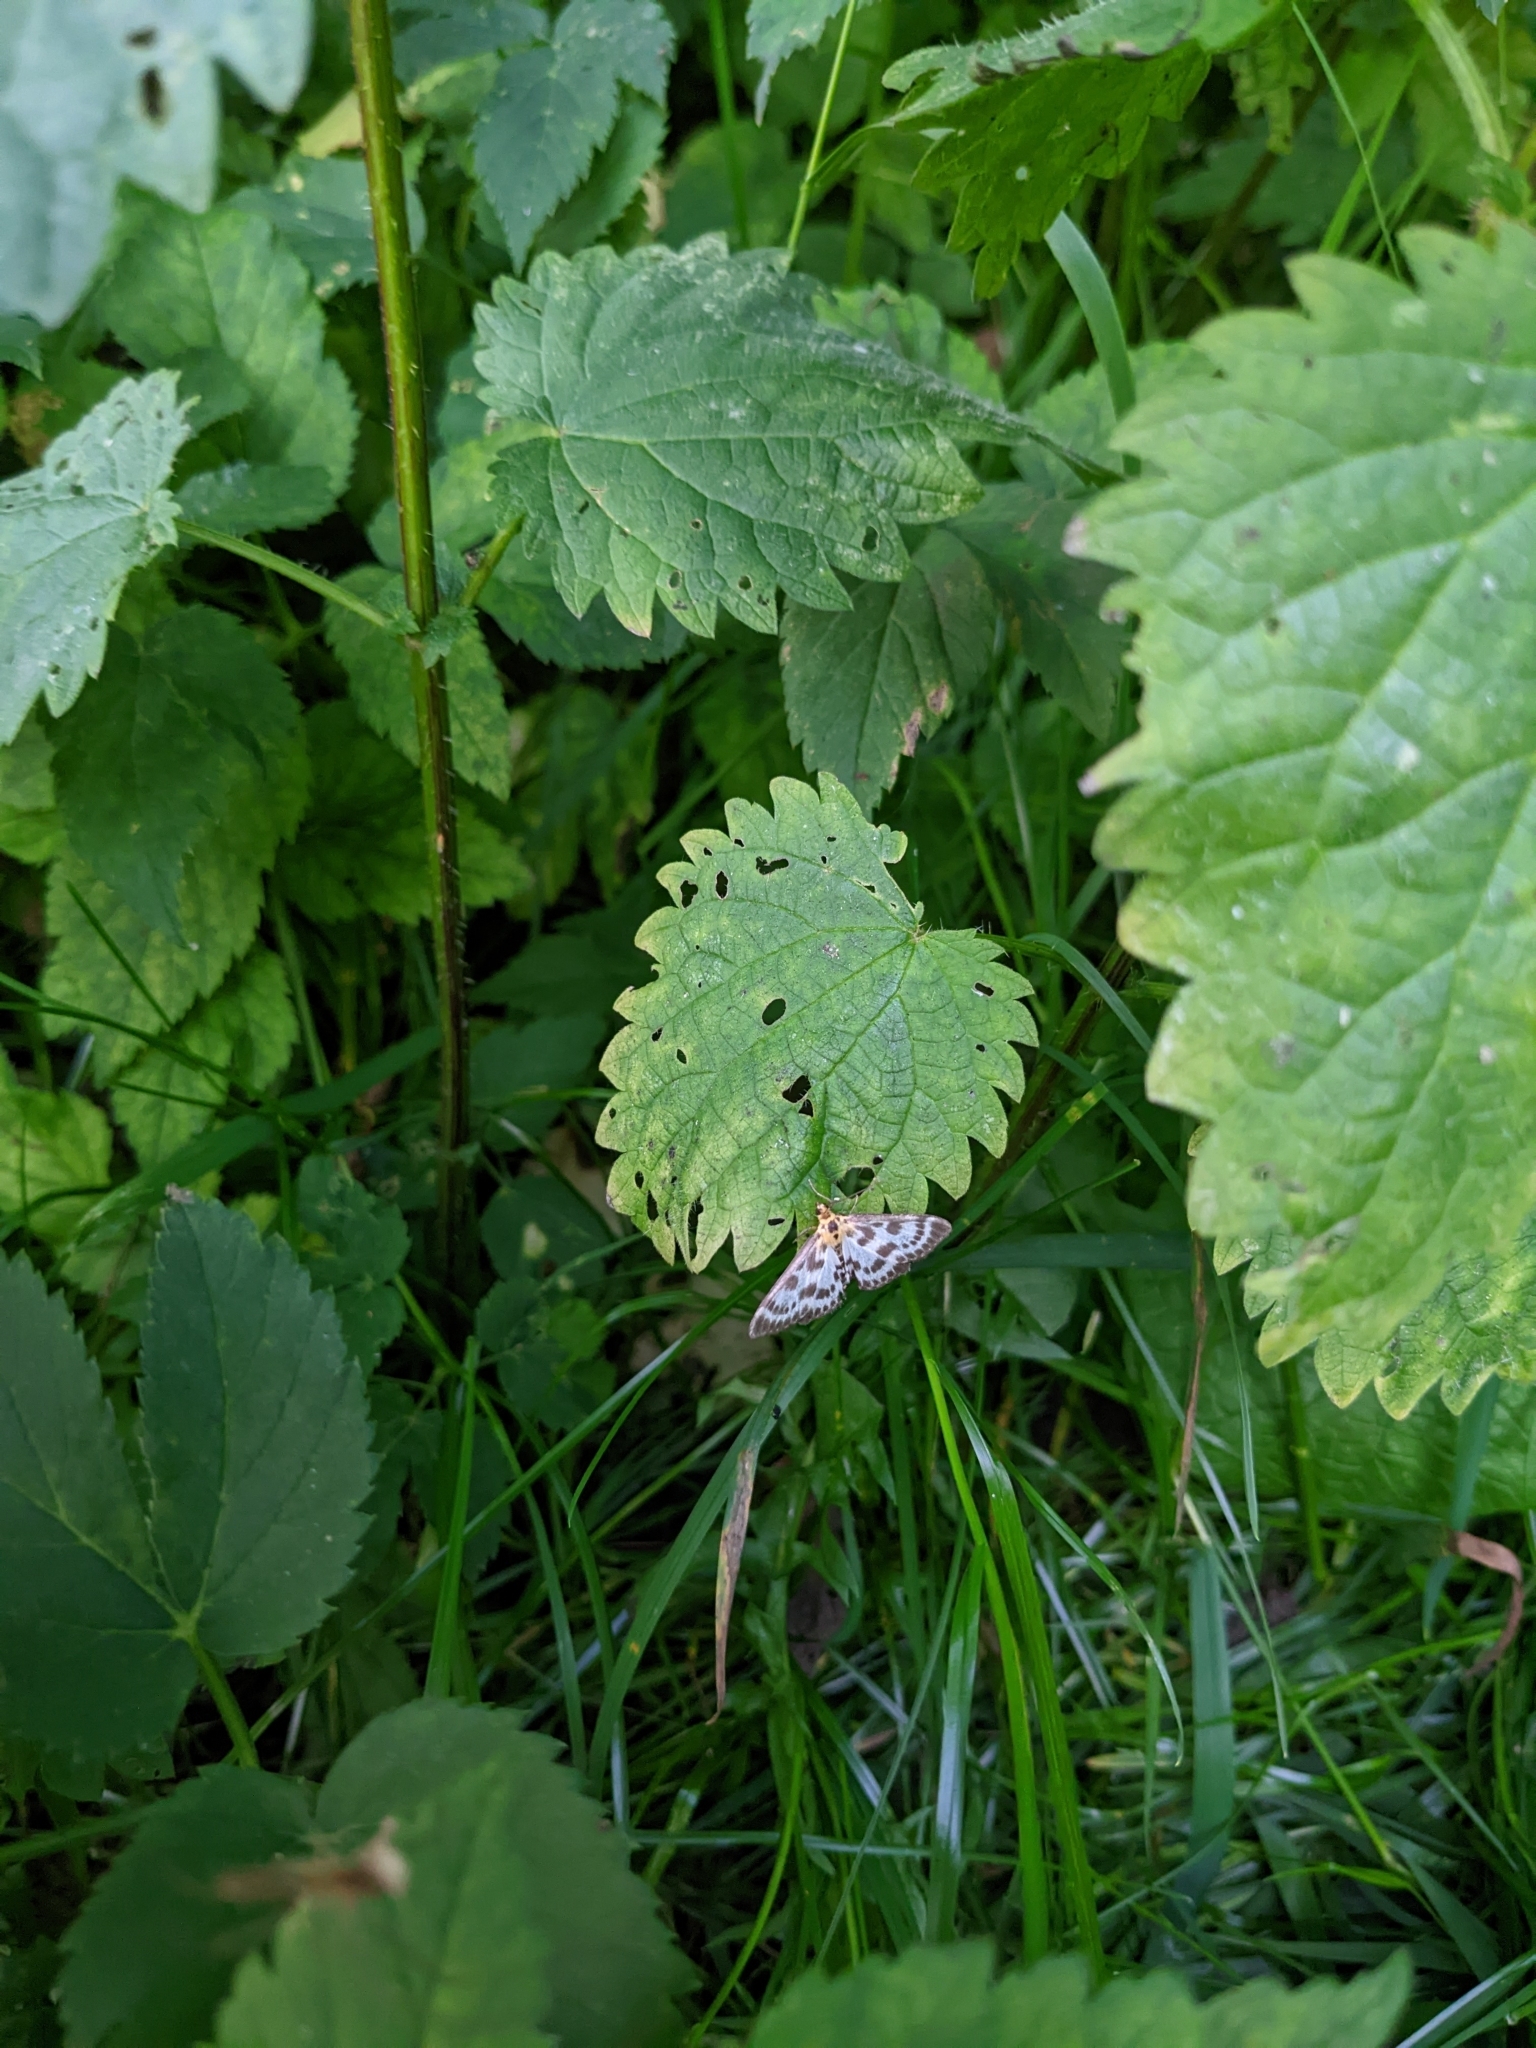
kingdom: Animalia
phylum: Arthropoda
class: Insecta
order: Lepidoptera
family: Crambidae
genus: Anania
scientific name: Anania hortulata
